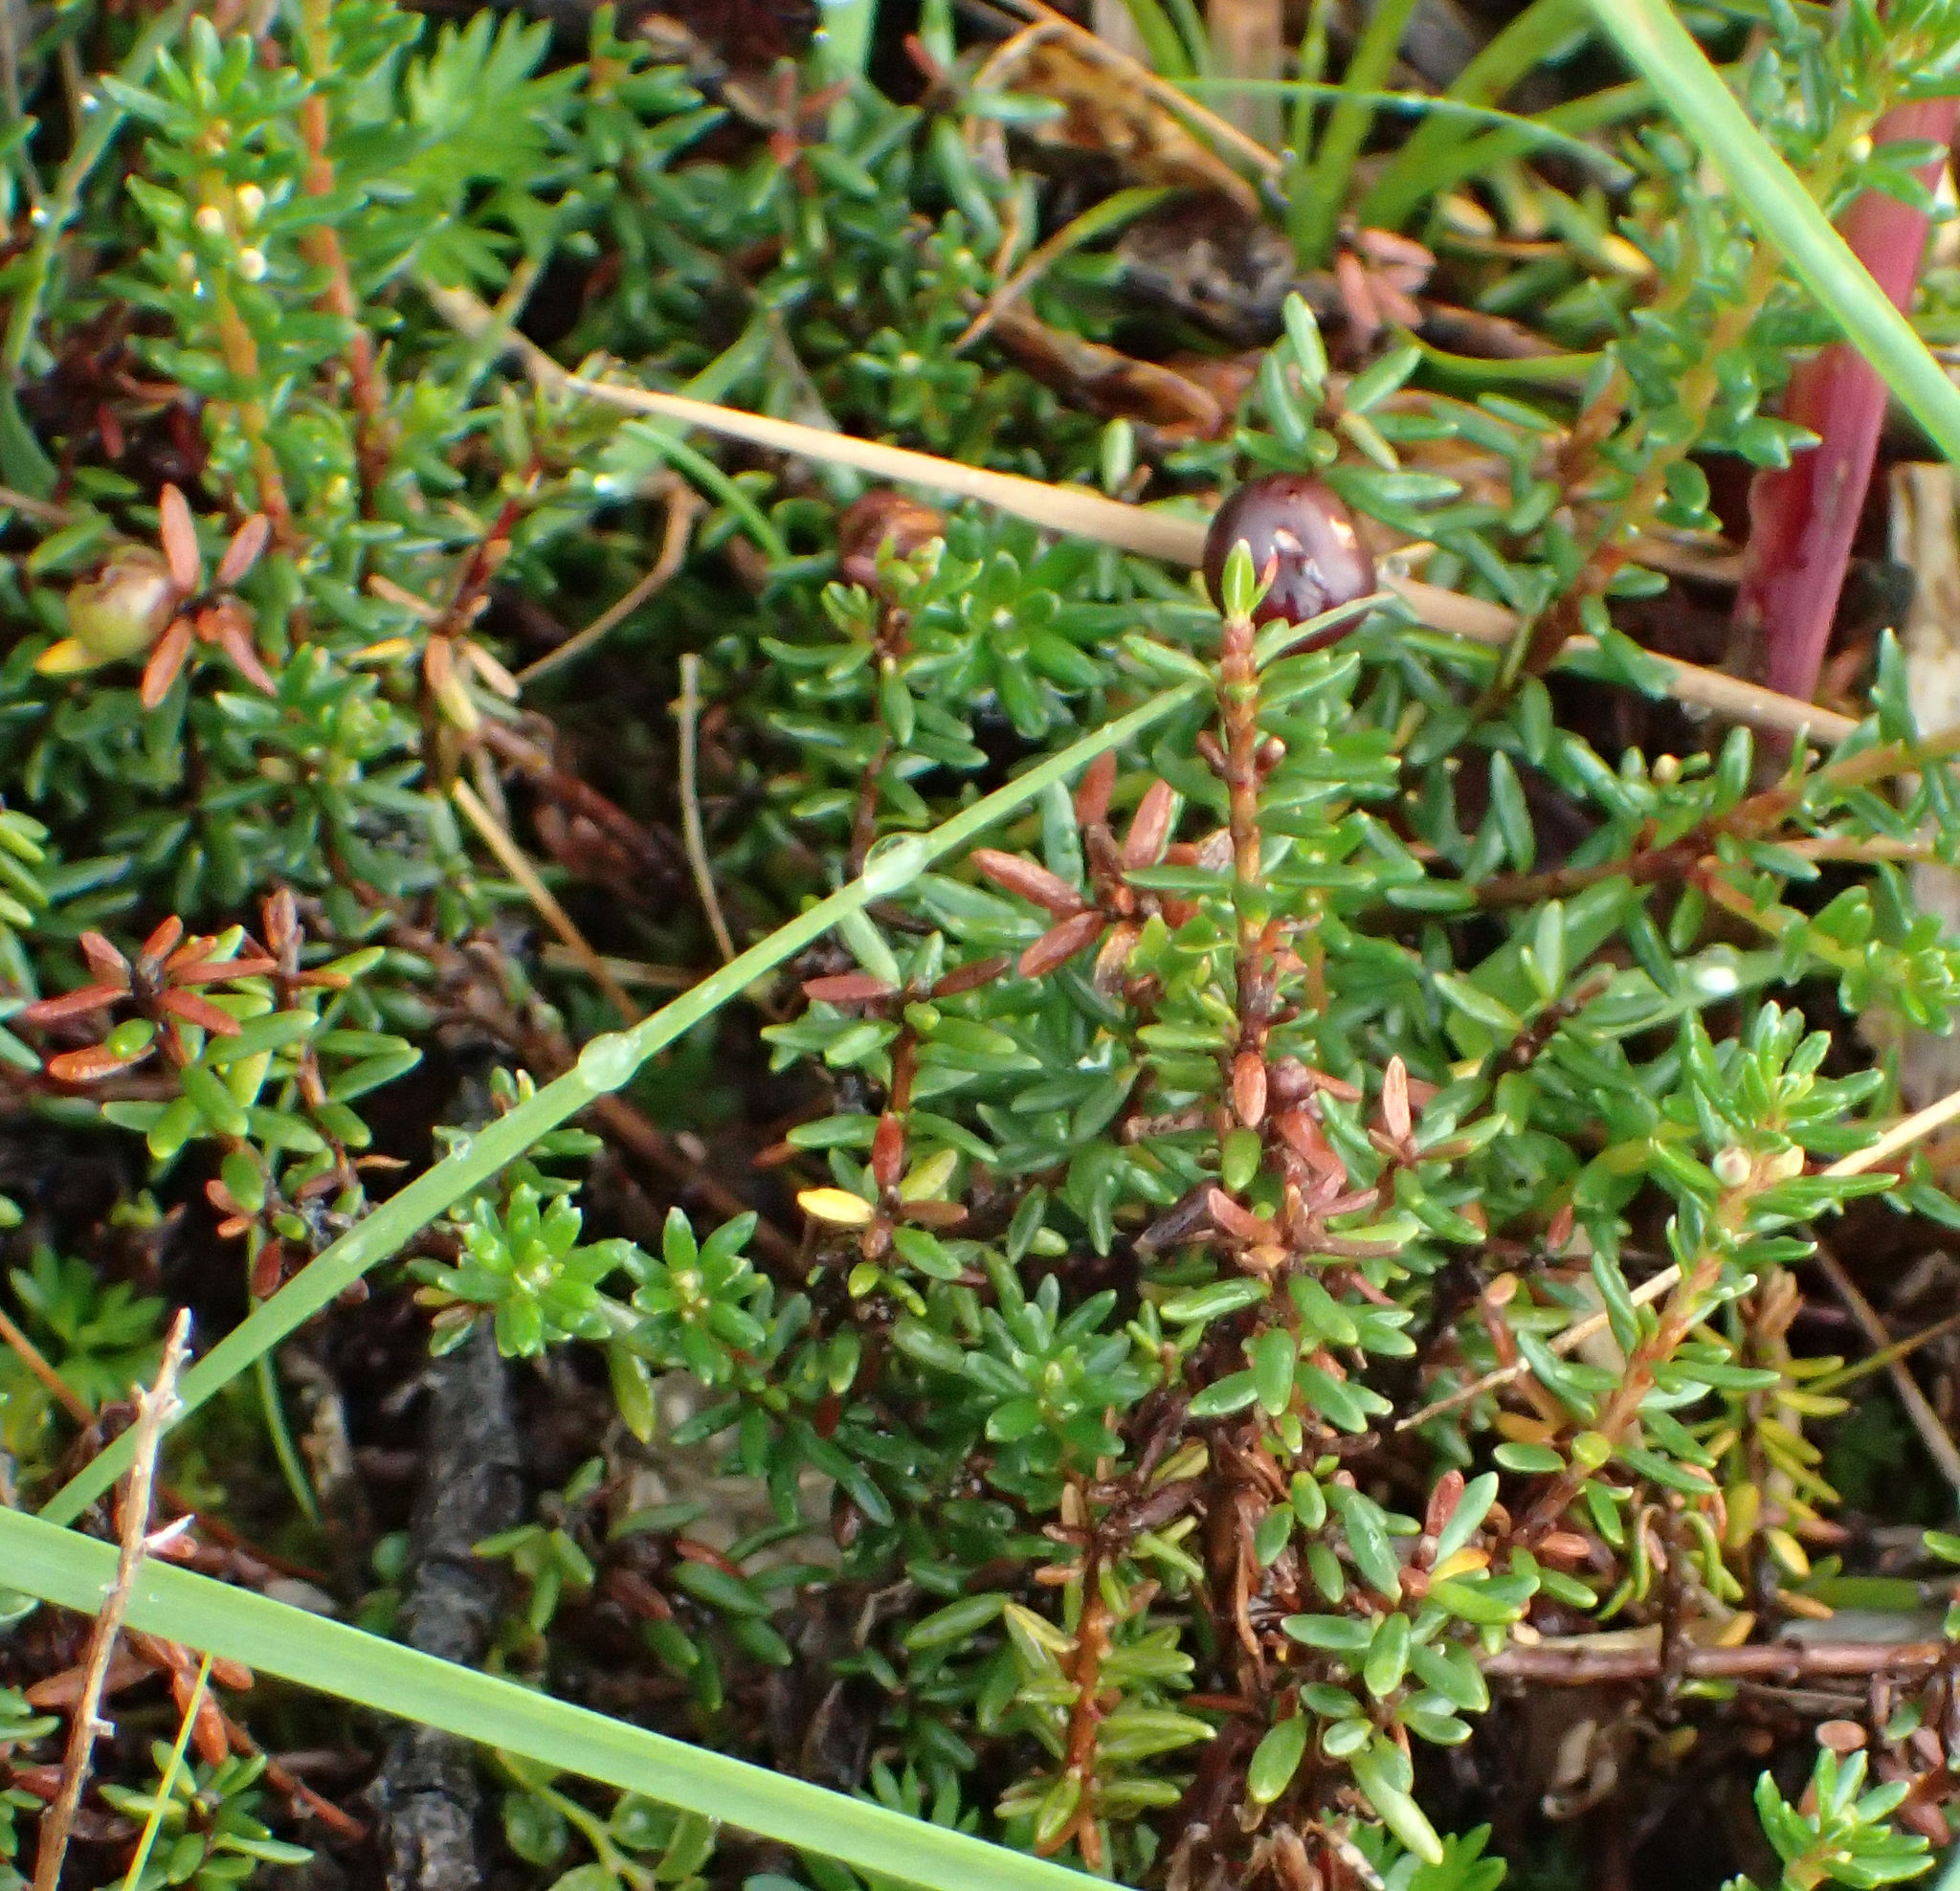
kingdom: Plantae
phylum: Tracheophyta
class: Magnoliopsida
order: Ericales
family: Ericaceae
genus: Empetrum
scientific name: Empetrum nigrum
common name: Black crowberry
